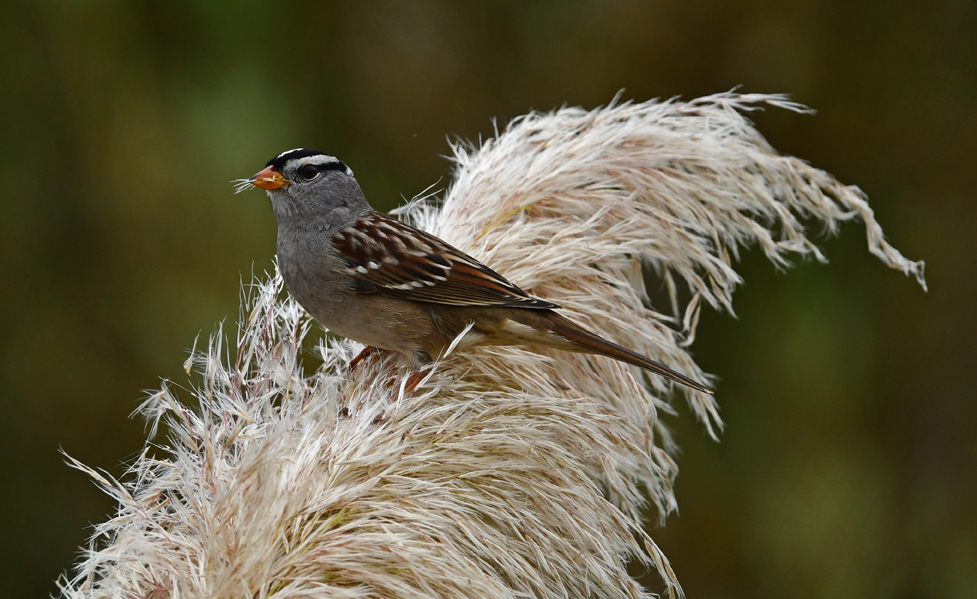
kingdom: Animalia
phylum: Chordata
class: Aves
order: Passeriformes
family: Passerellidae
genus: Zonotrichia
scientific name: Zonotrichia leucophrys
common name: White-crowned sparrow
